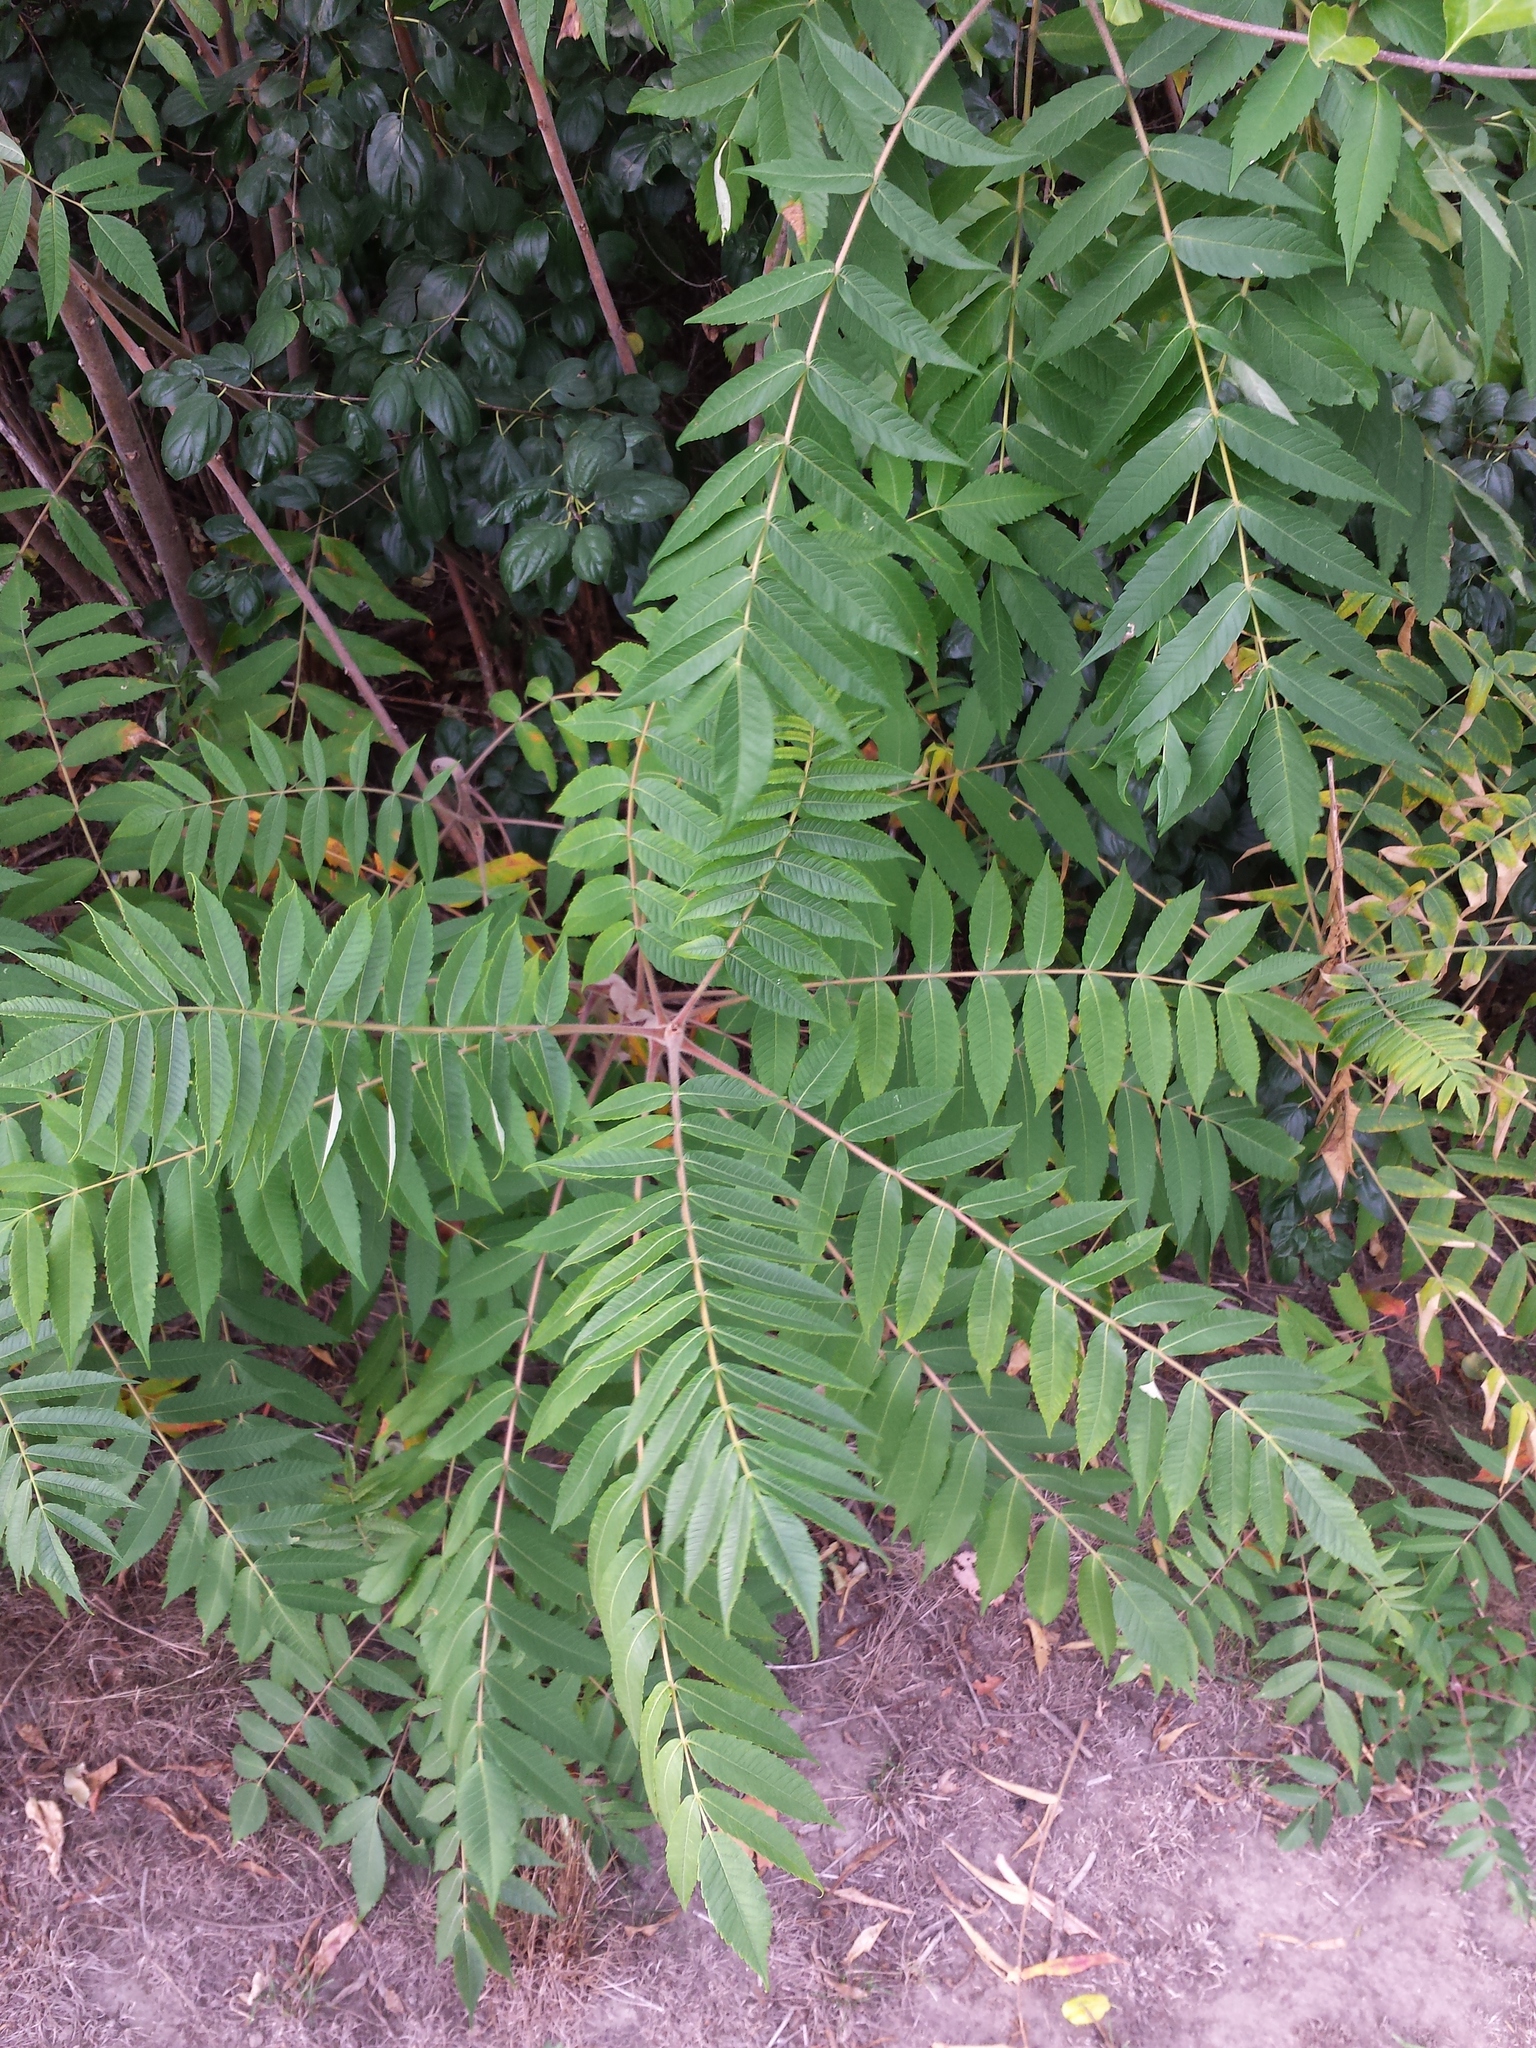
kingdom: Plantae
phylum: Tracheophyta
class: Magnoliopsida
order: Sapindales
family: Anacardiaceae
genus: Rhus
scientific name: Rhus typhina
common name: Staghorn sumac
